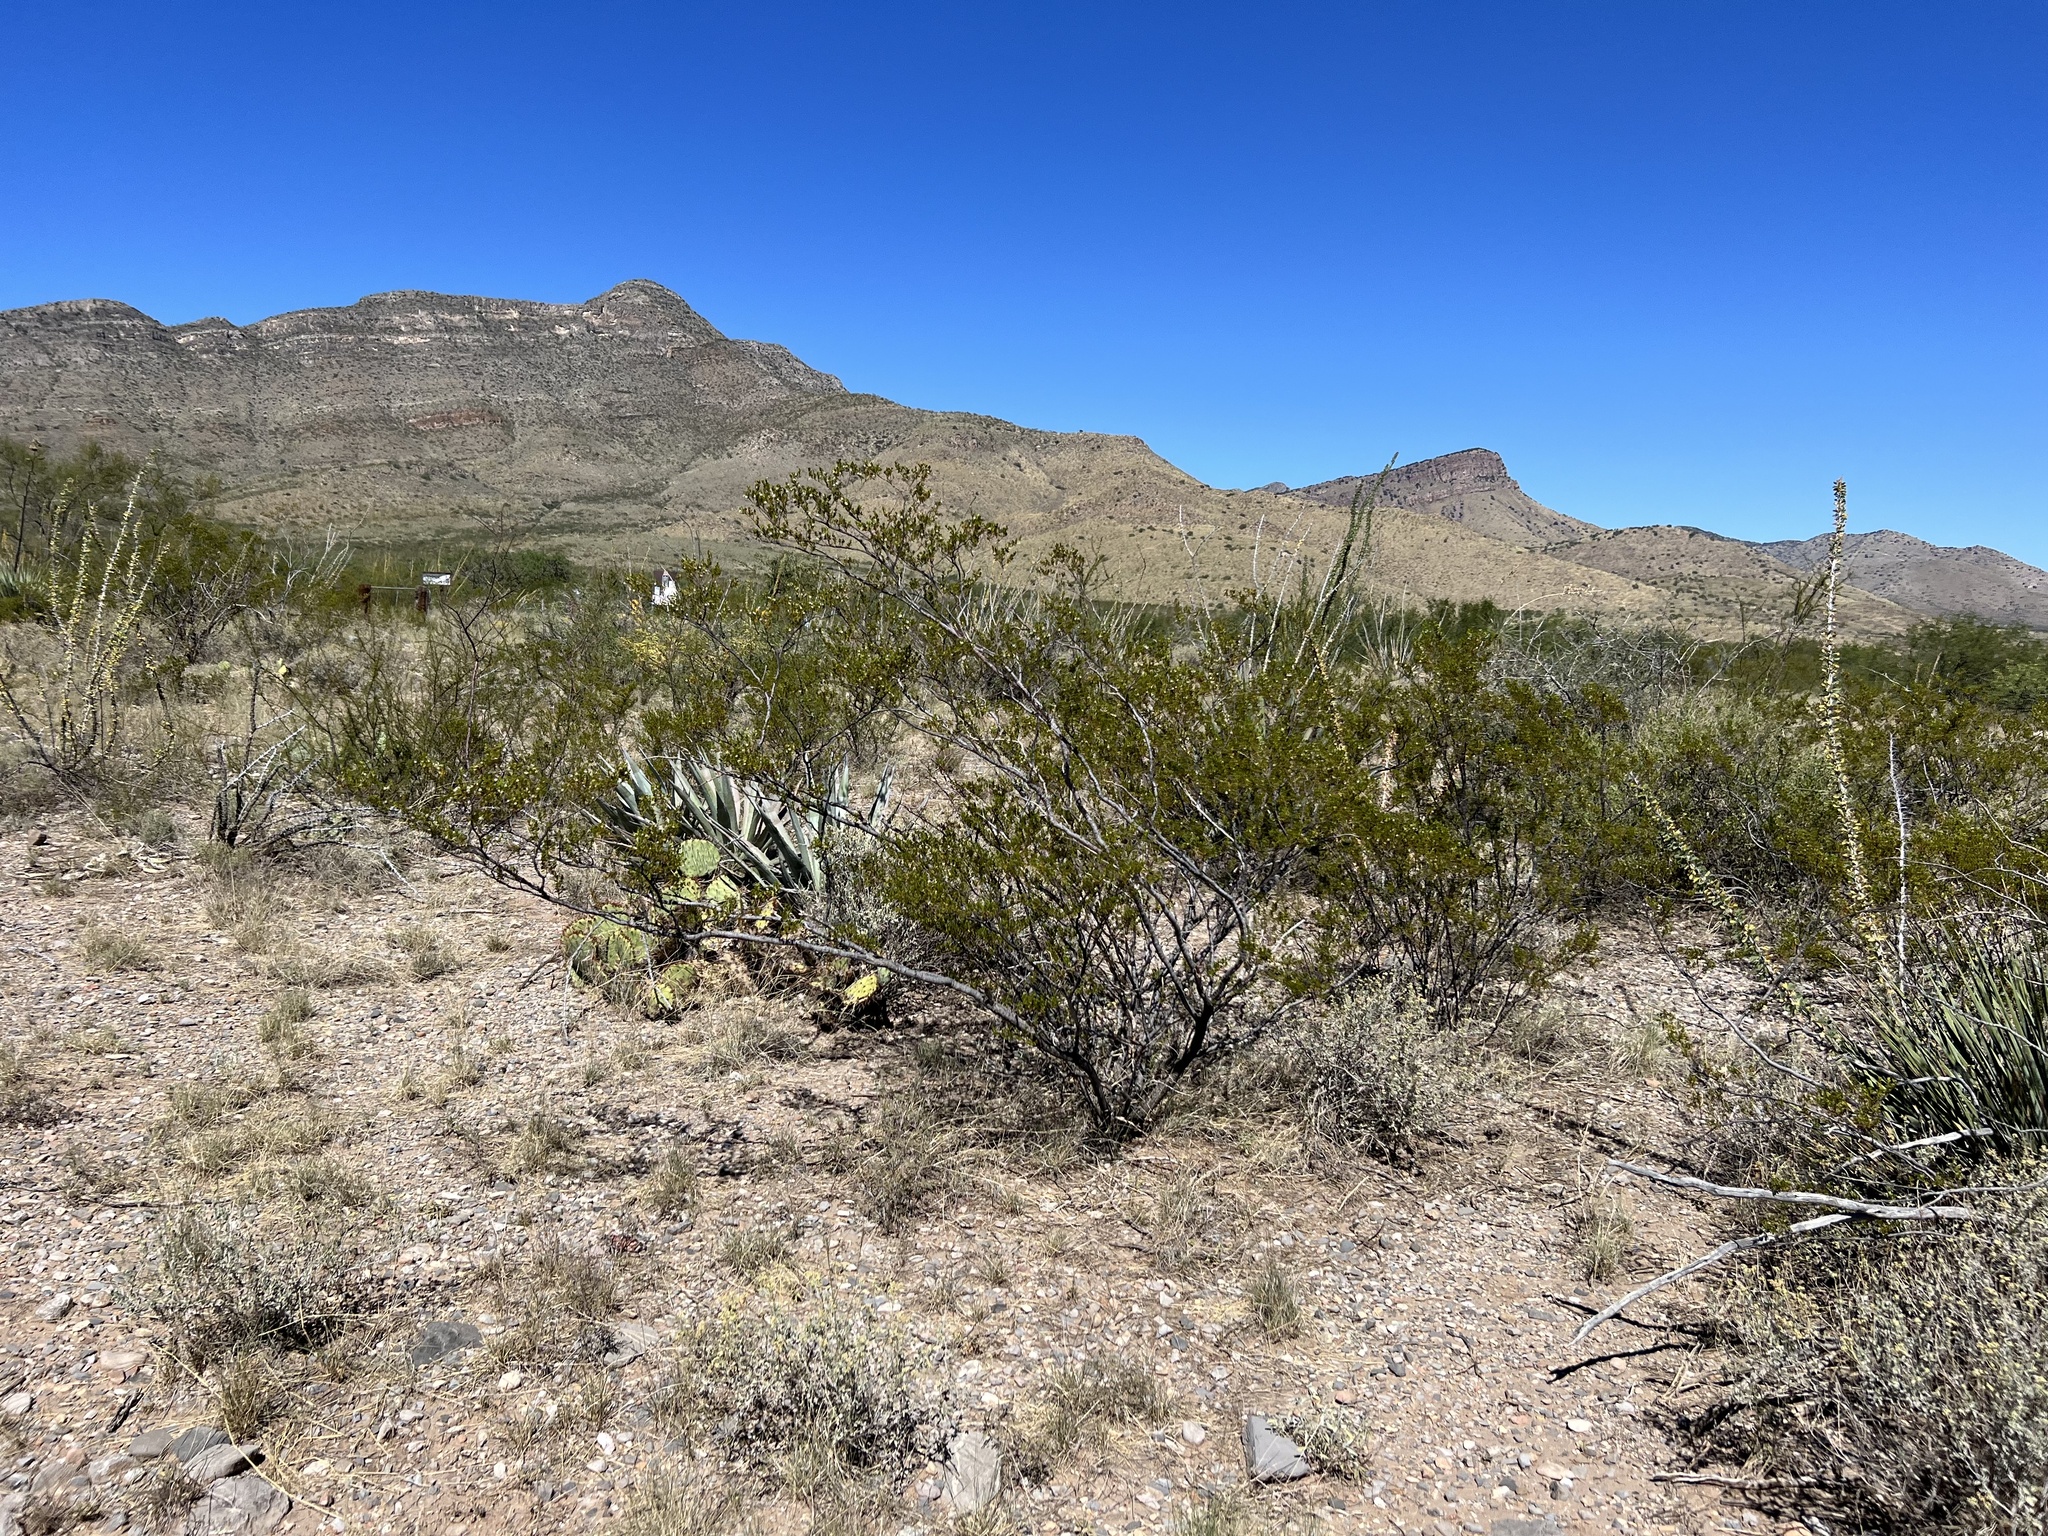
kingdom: Plantae
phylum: Tracheophyta
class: Magnoliopsida
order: Zygophyllales
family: Zygophyllaceae
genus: Larrea
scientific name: Larrea tridentata
